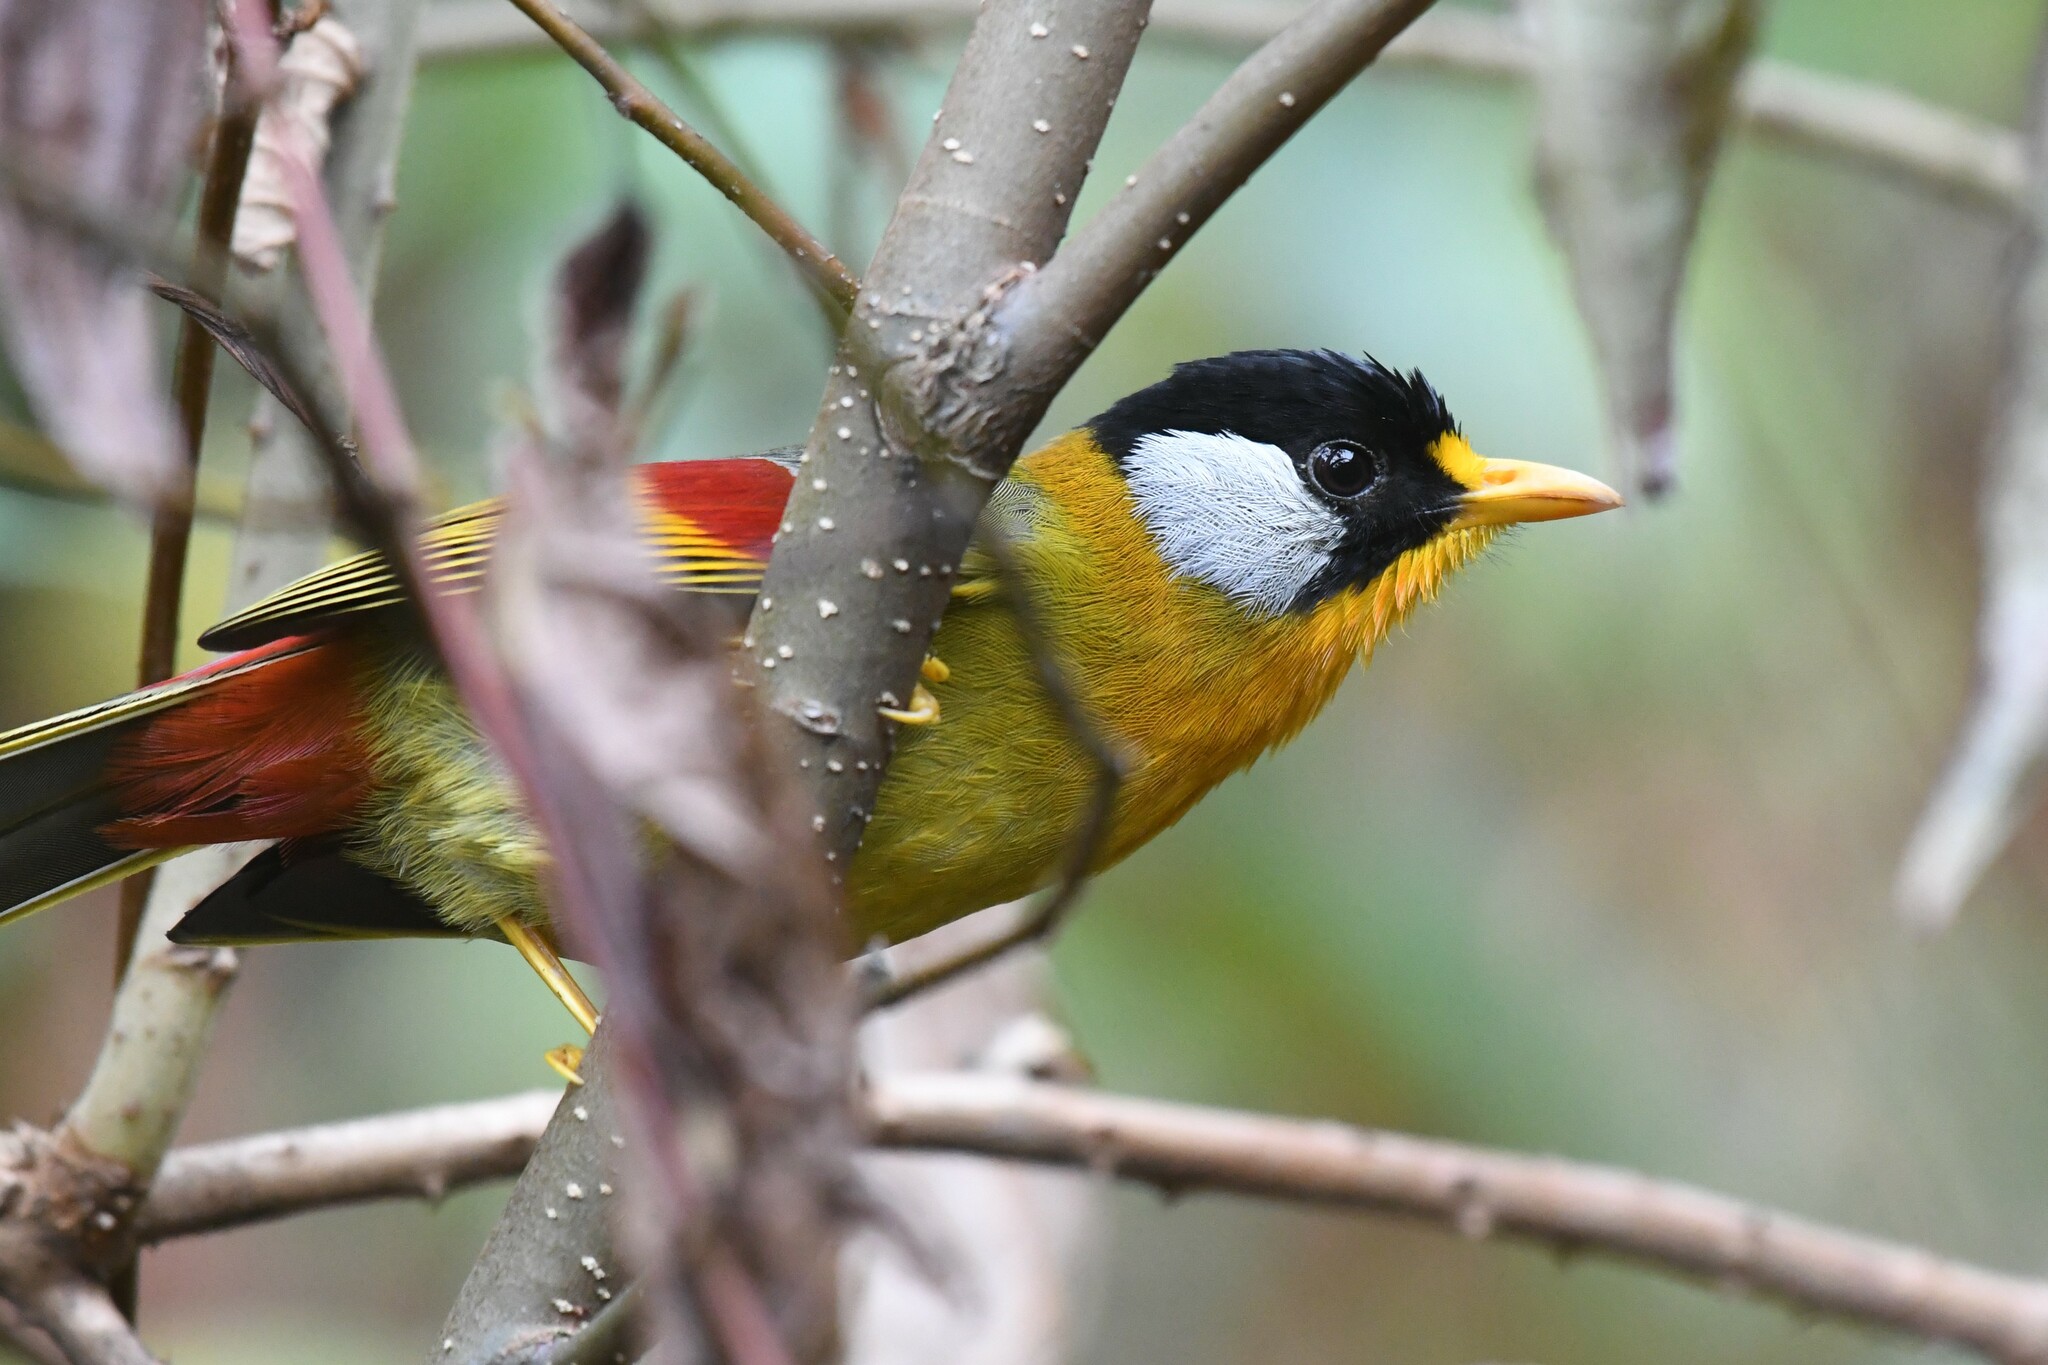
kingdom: Animalia
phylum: Chordata
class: Aves
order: Passeriformes
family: Leiothrichidae
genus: Leiothrix
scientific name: Leiothrix argentauris
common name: Silver-eared mesia
